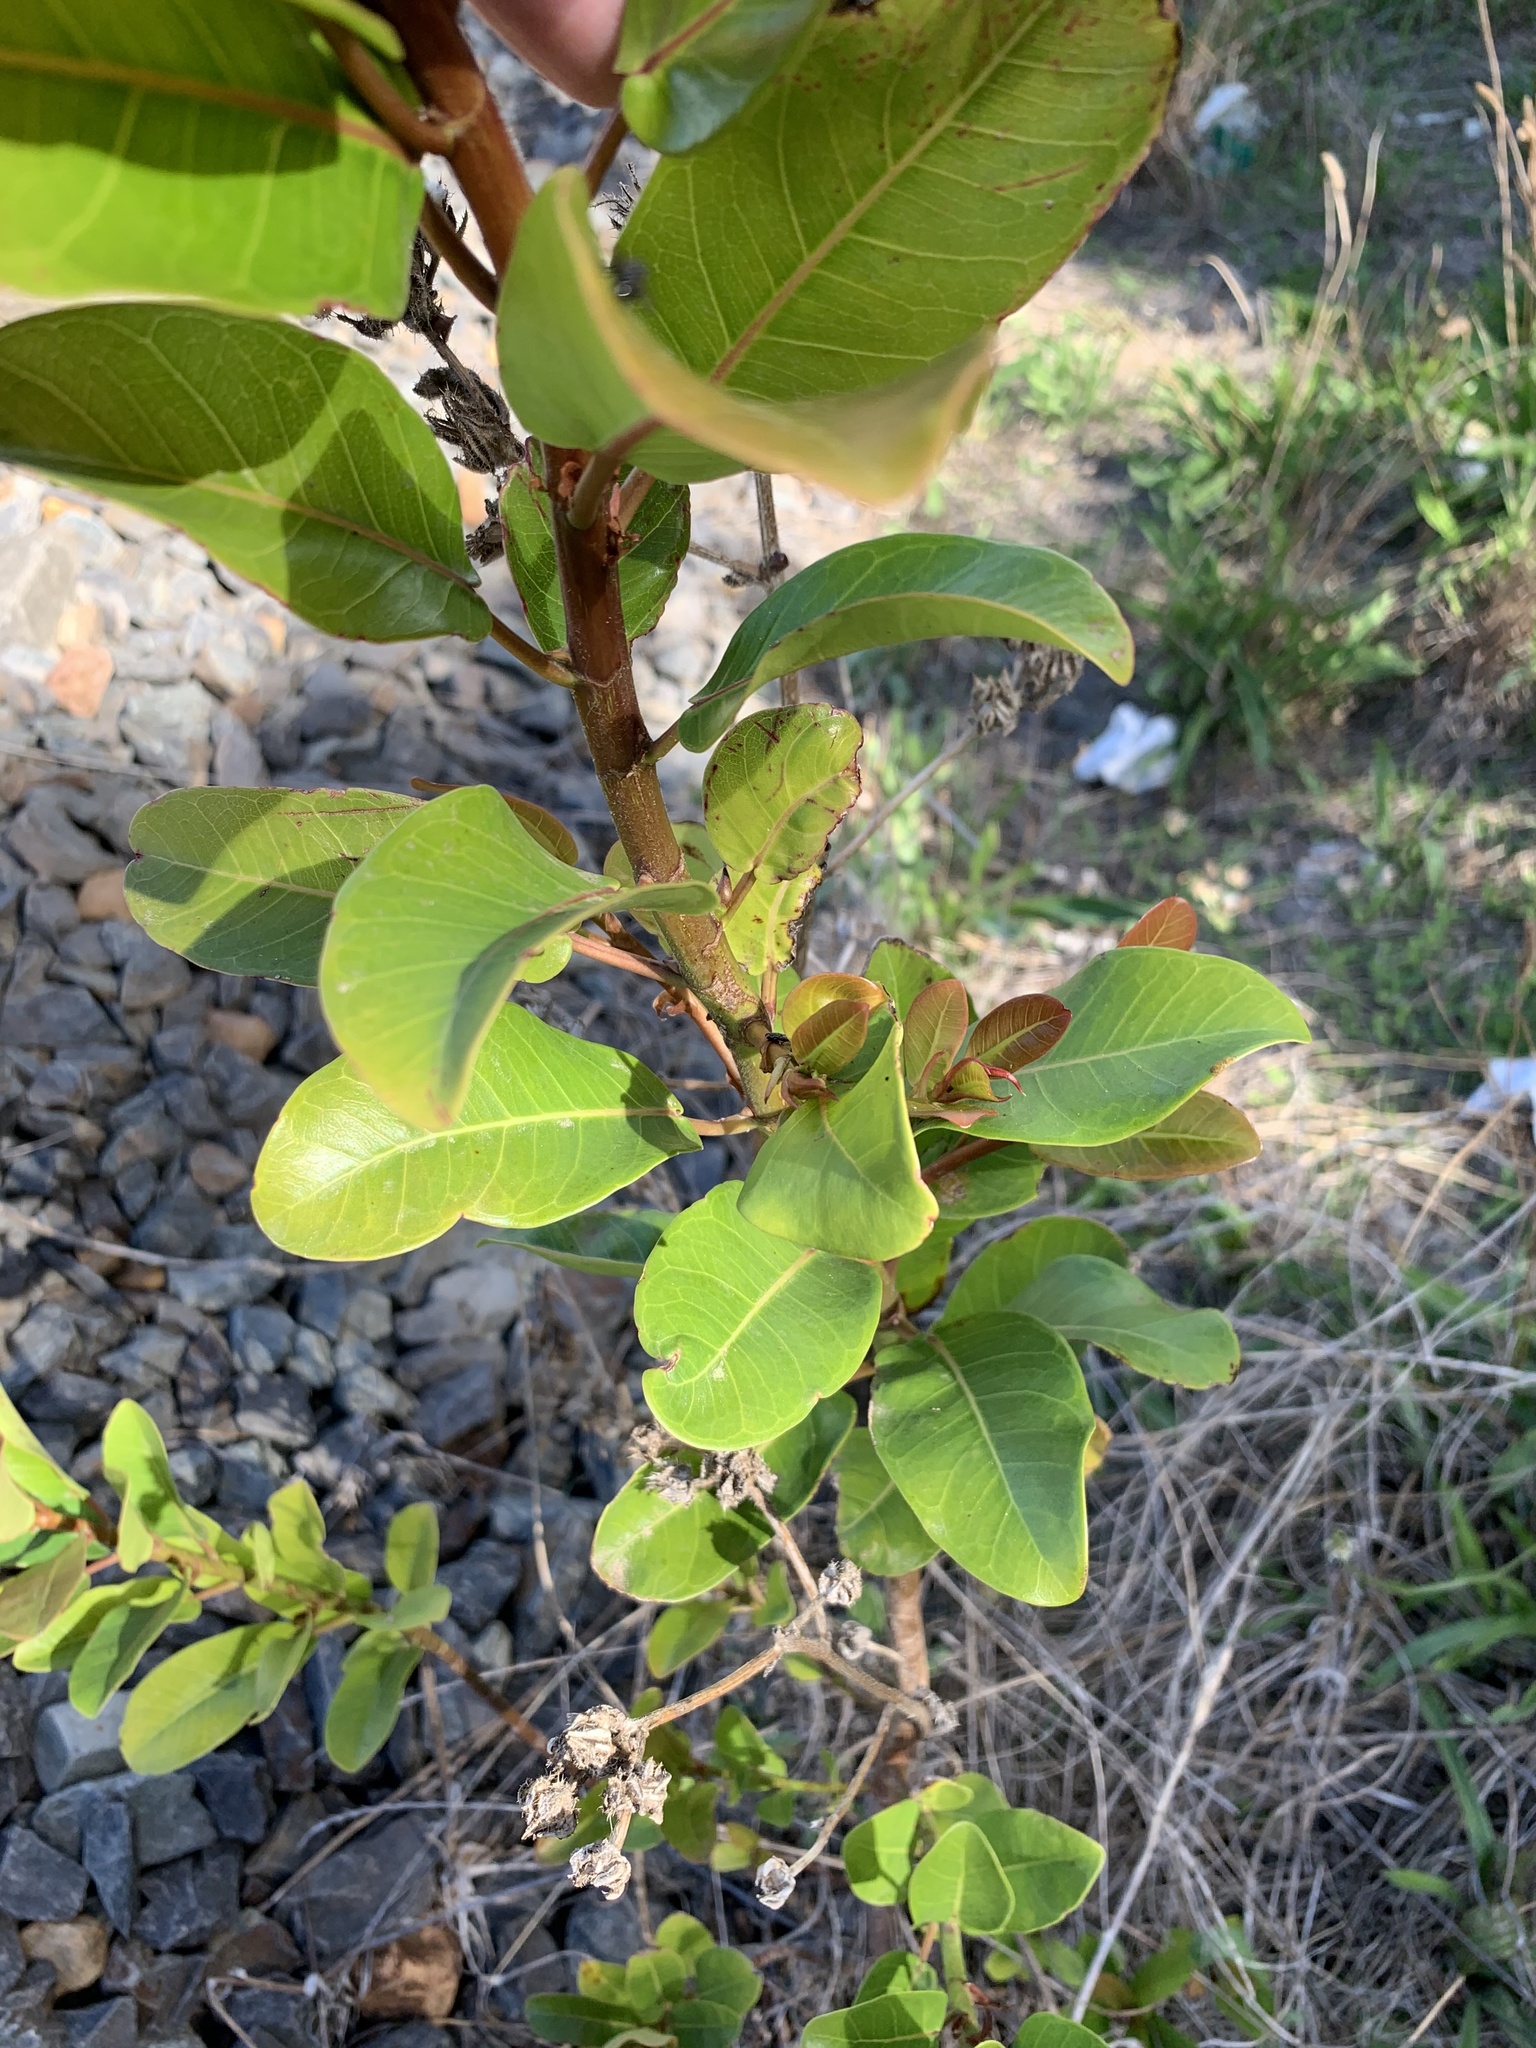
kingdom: Plantae
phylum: Tracheophyta
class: Magnoliopsida
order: Rosales
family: Moraceae
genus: Ficus
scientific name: Ficus thonningii
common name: Fig
